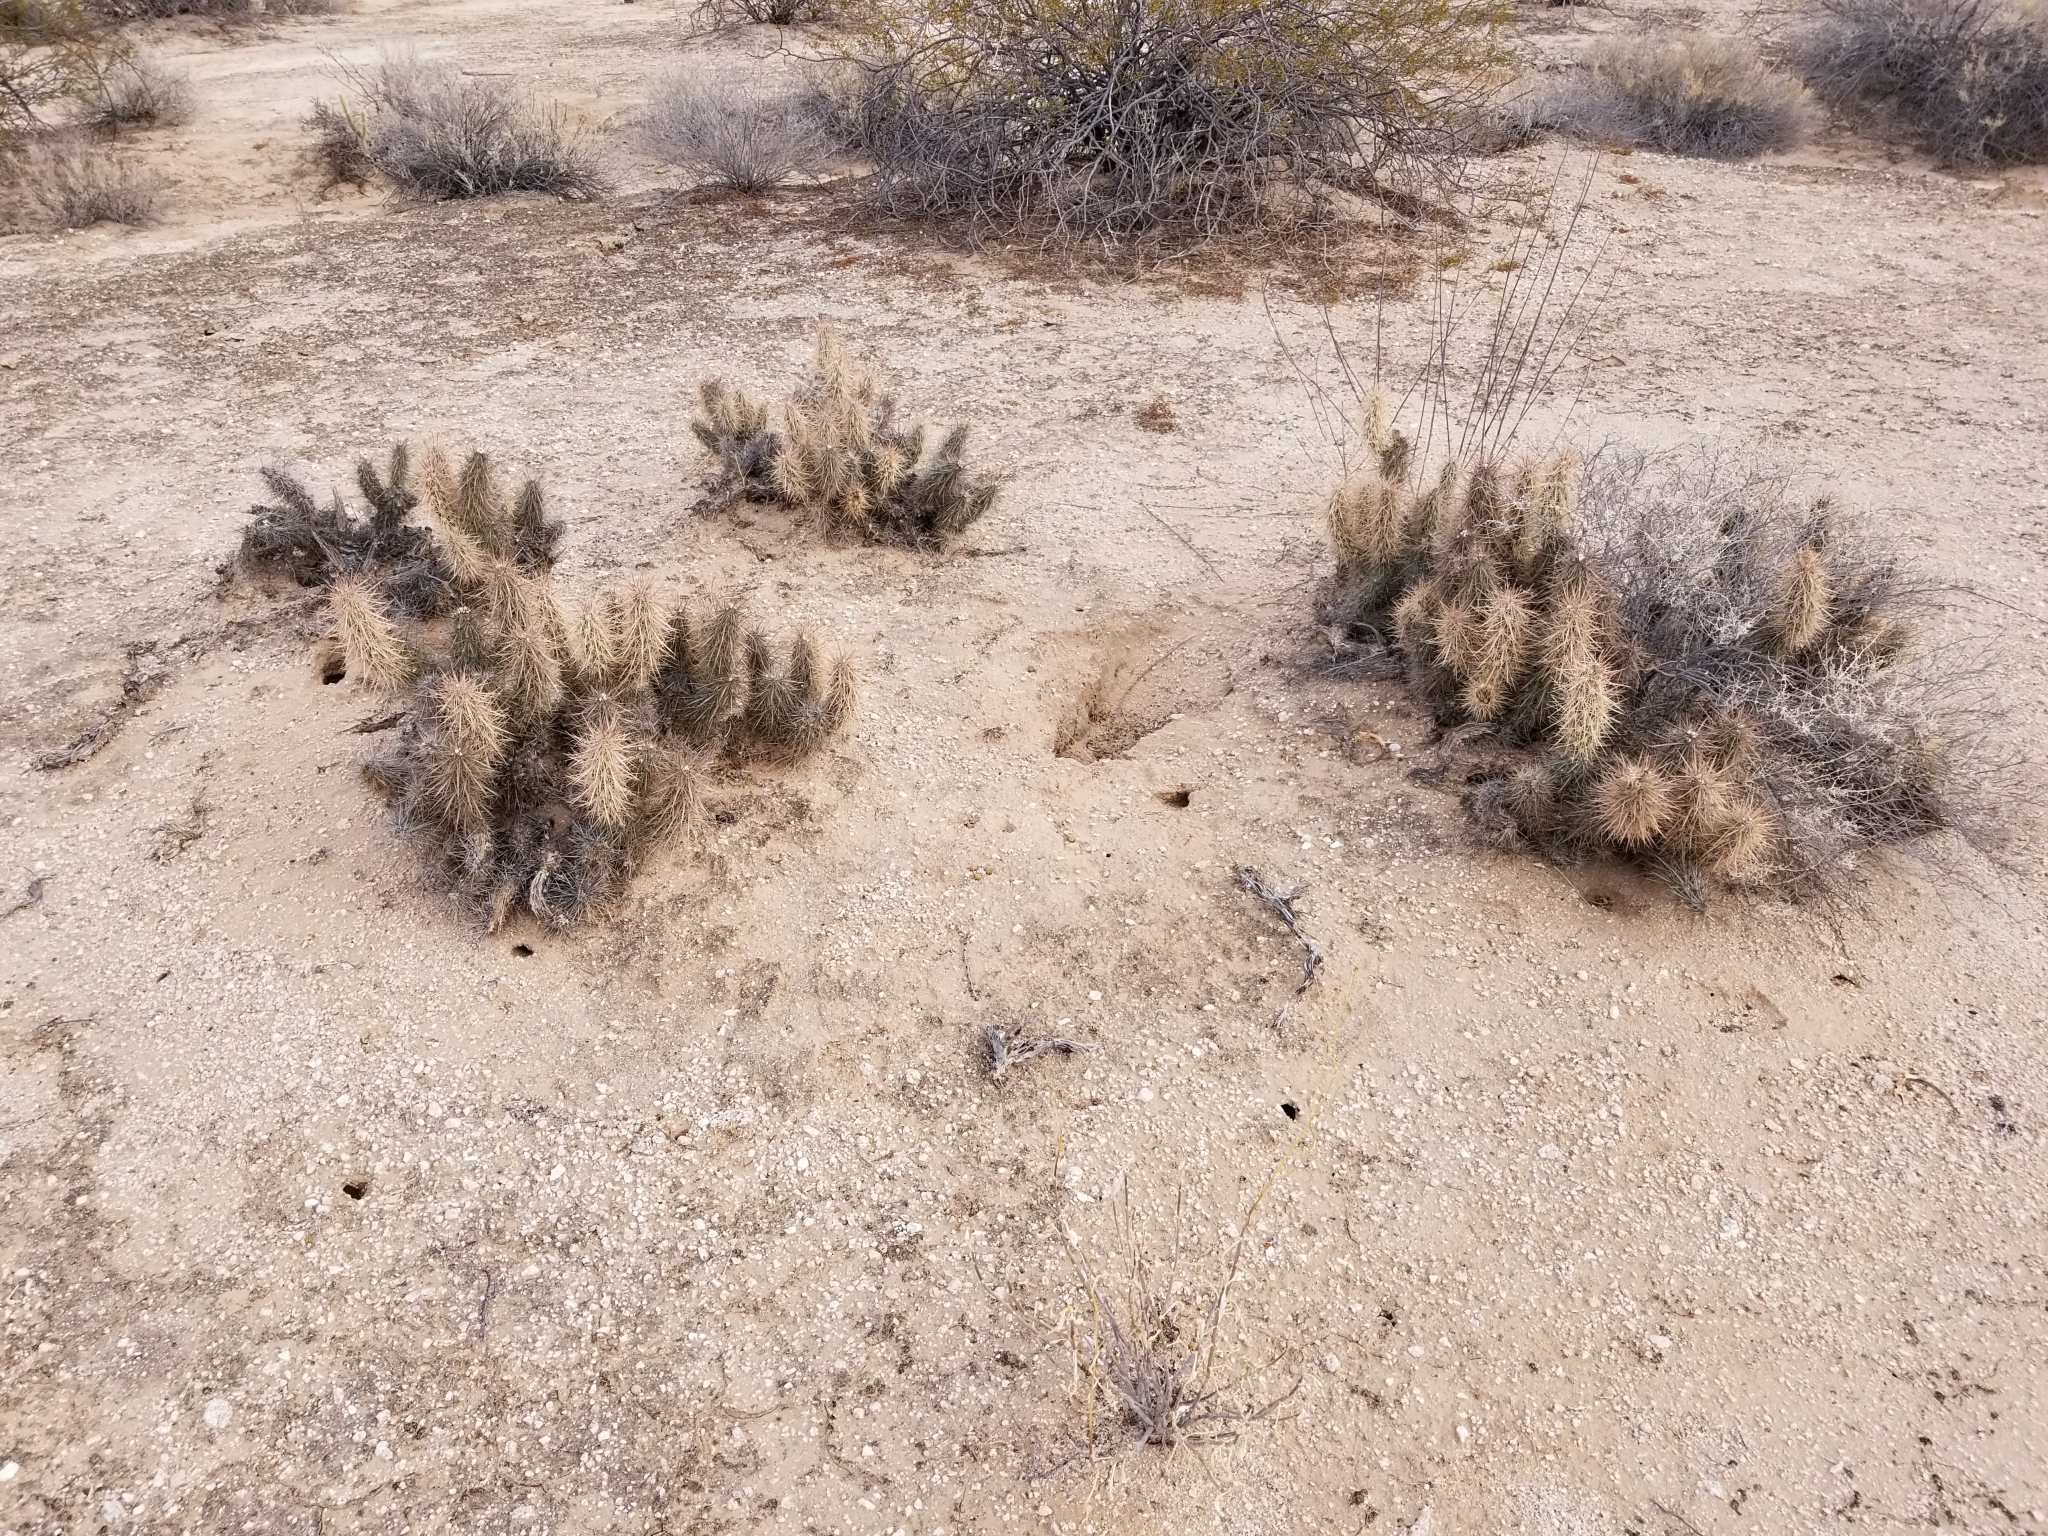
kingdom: Plantae
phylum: Tracheophyta
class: Magnoliopsida
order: Caryophyllales
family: Cactaceae
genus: Grusonia
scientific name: Grusonia kunzei
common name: Wright's club cholla
